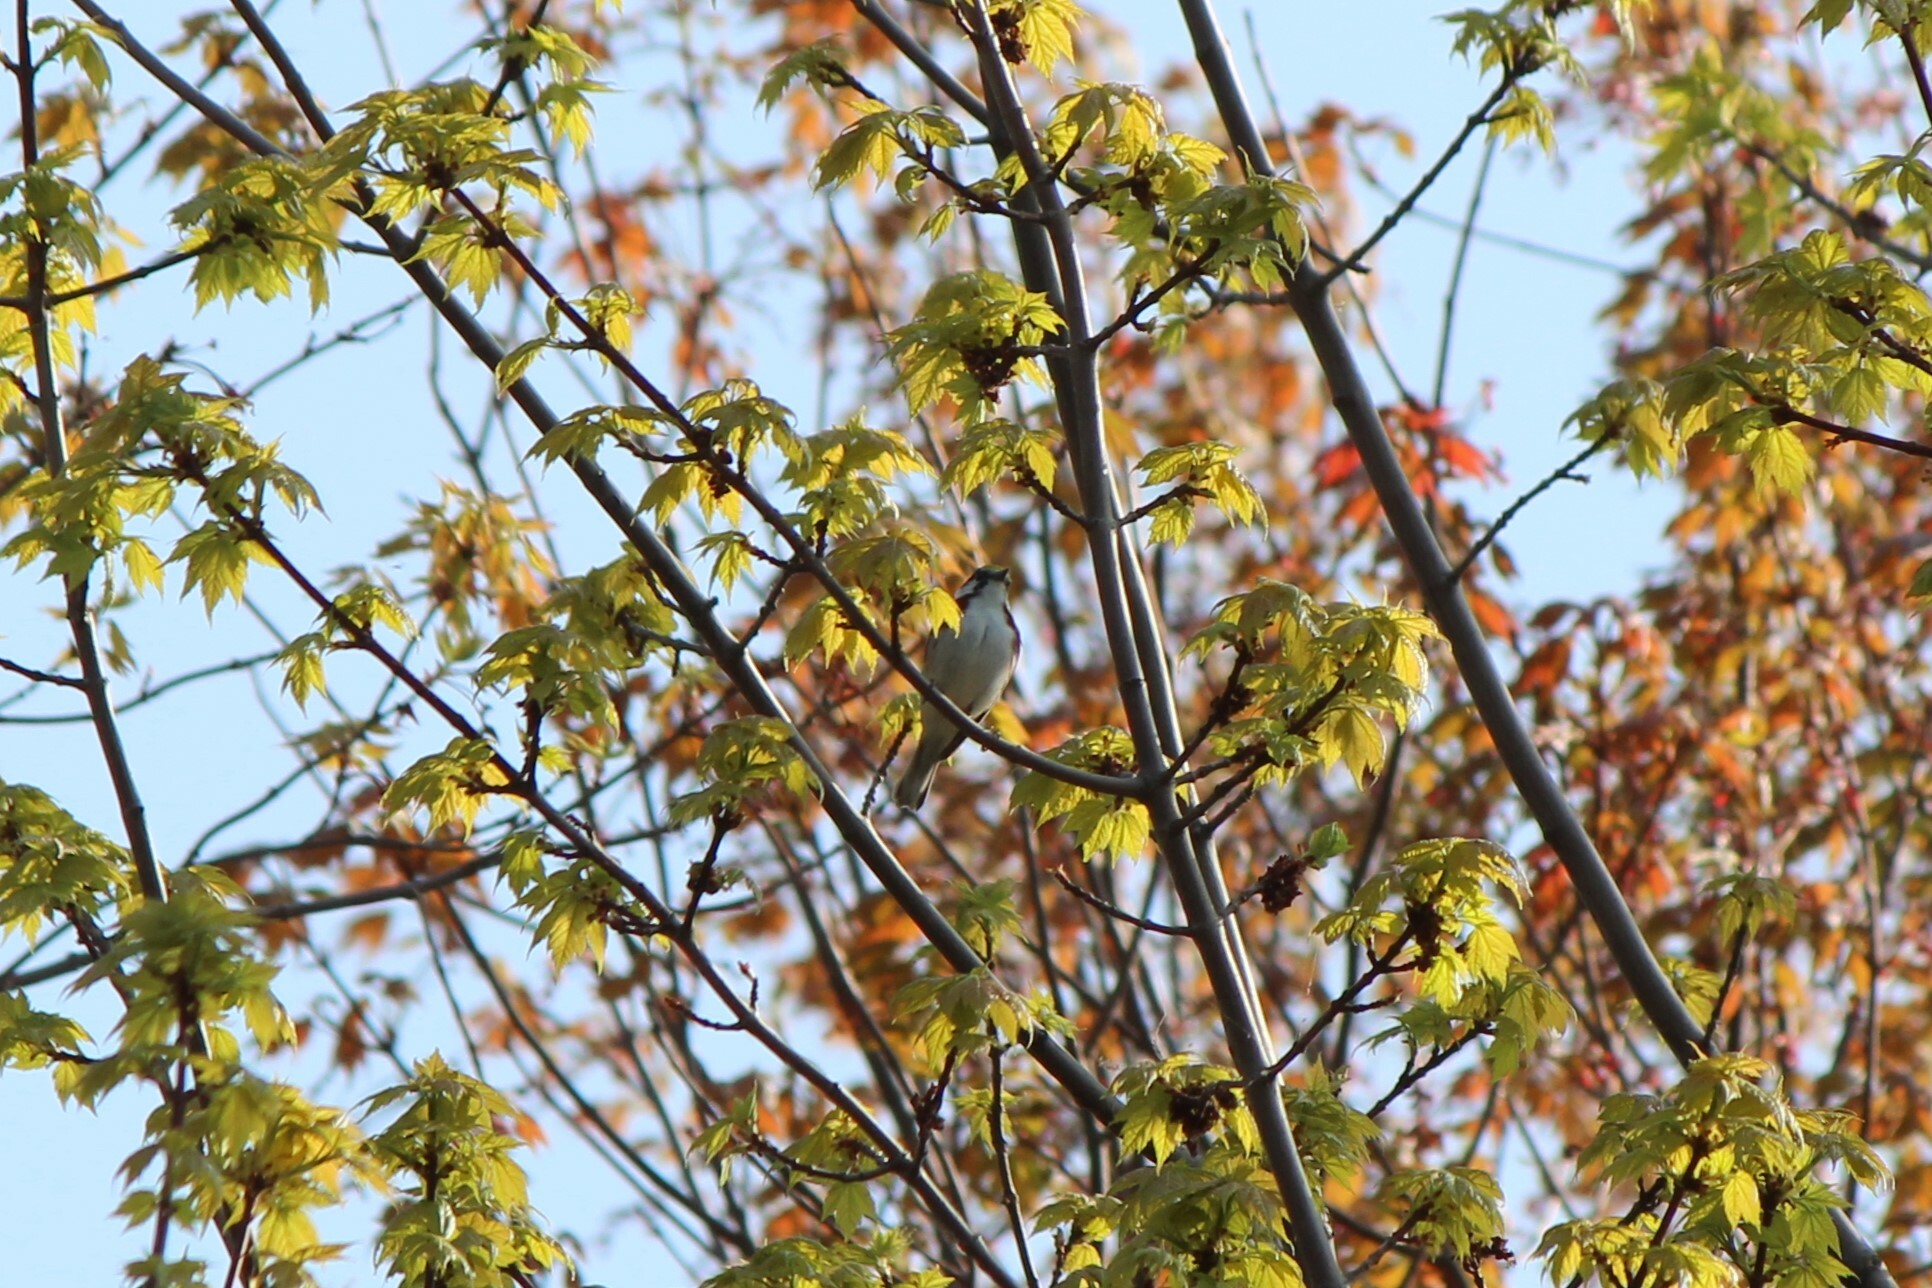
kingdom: Animalia
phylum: Chordata
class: Aves
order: Passeriformes
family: Parulidae
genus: Setophaga
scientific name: Setophaga pensylvanica
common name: Chestnut-sided warbler
